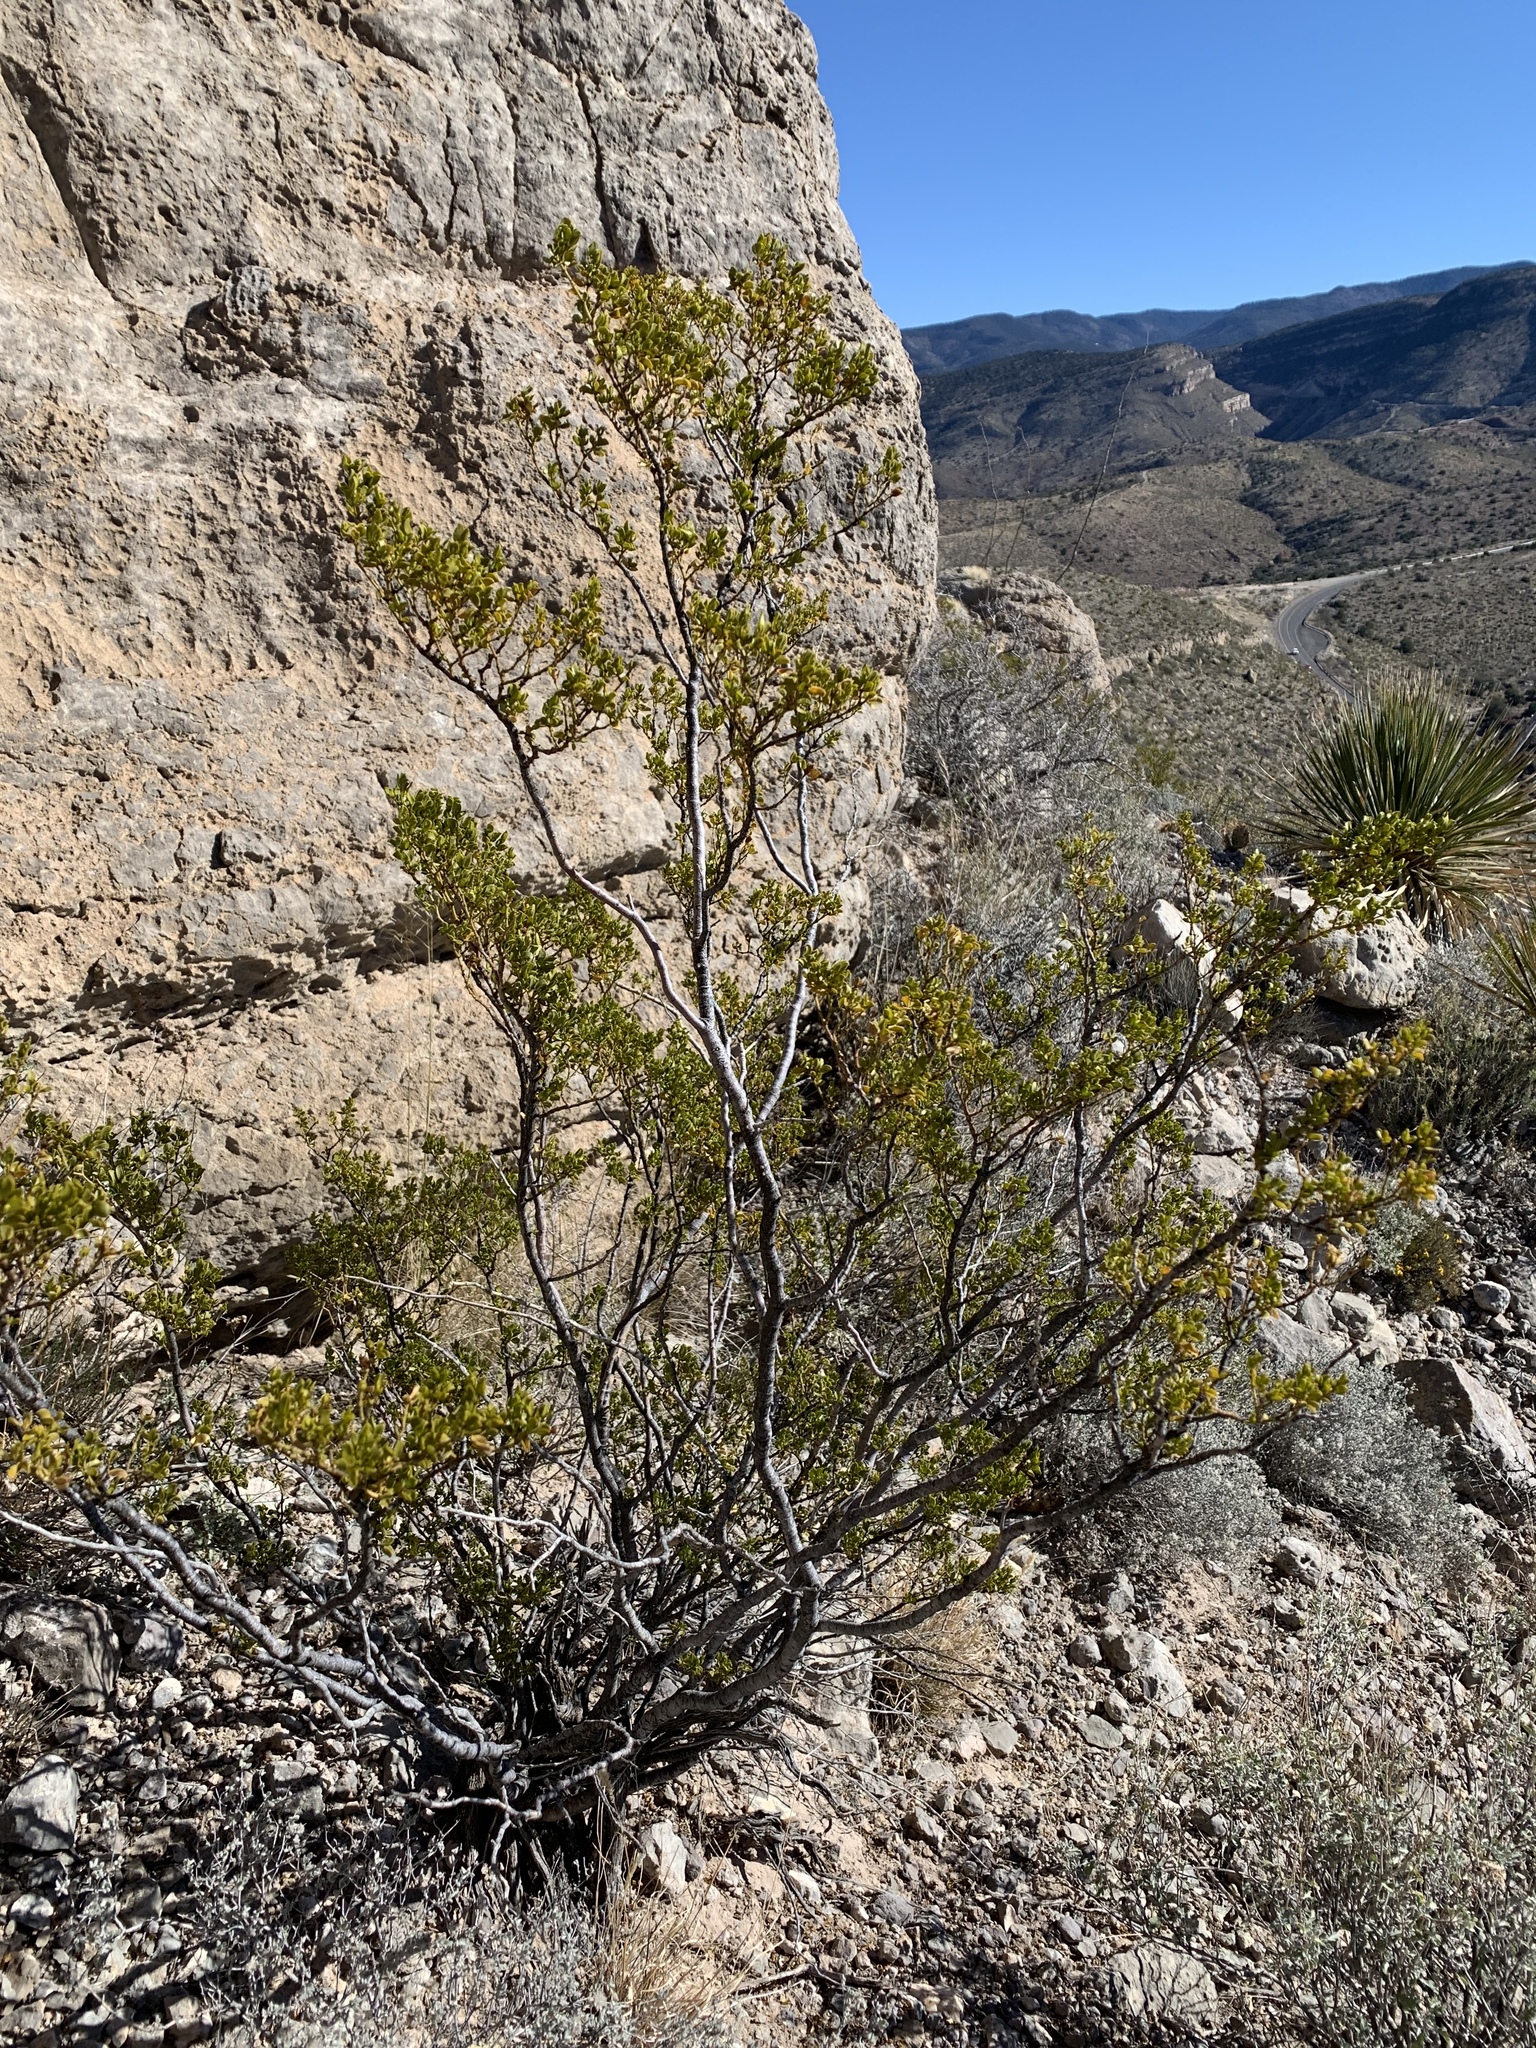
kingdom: Plantae
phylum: Tracheophyta
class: Magnoliopsida
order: Zygophyllales
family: Zygophyllaceae
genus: Larrea
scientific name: Larrea tridentata
